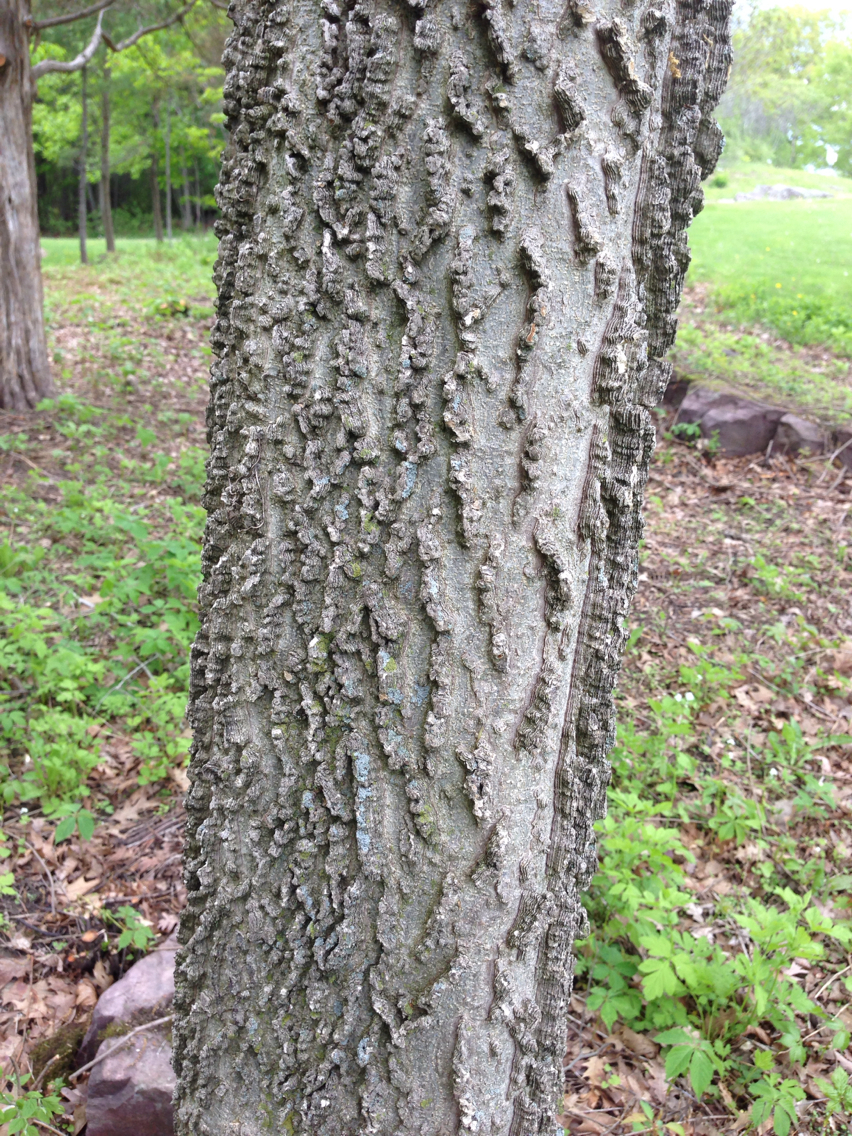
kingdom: Plantae
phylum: Tracheophyta
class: Magnoliopsida
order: Rosales
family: Cannabaceae
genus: Celtis
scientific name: Celtis occidentalis
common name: Common hackberry
